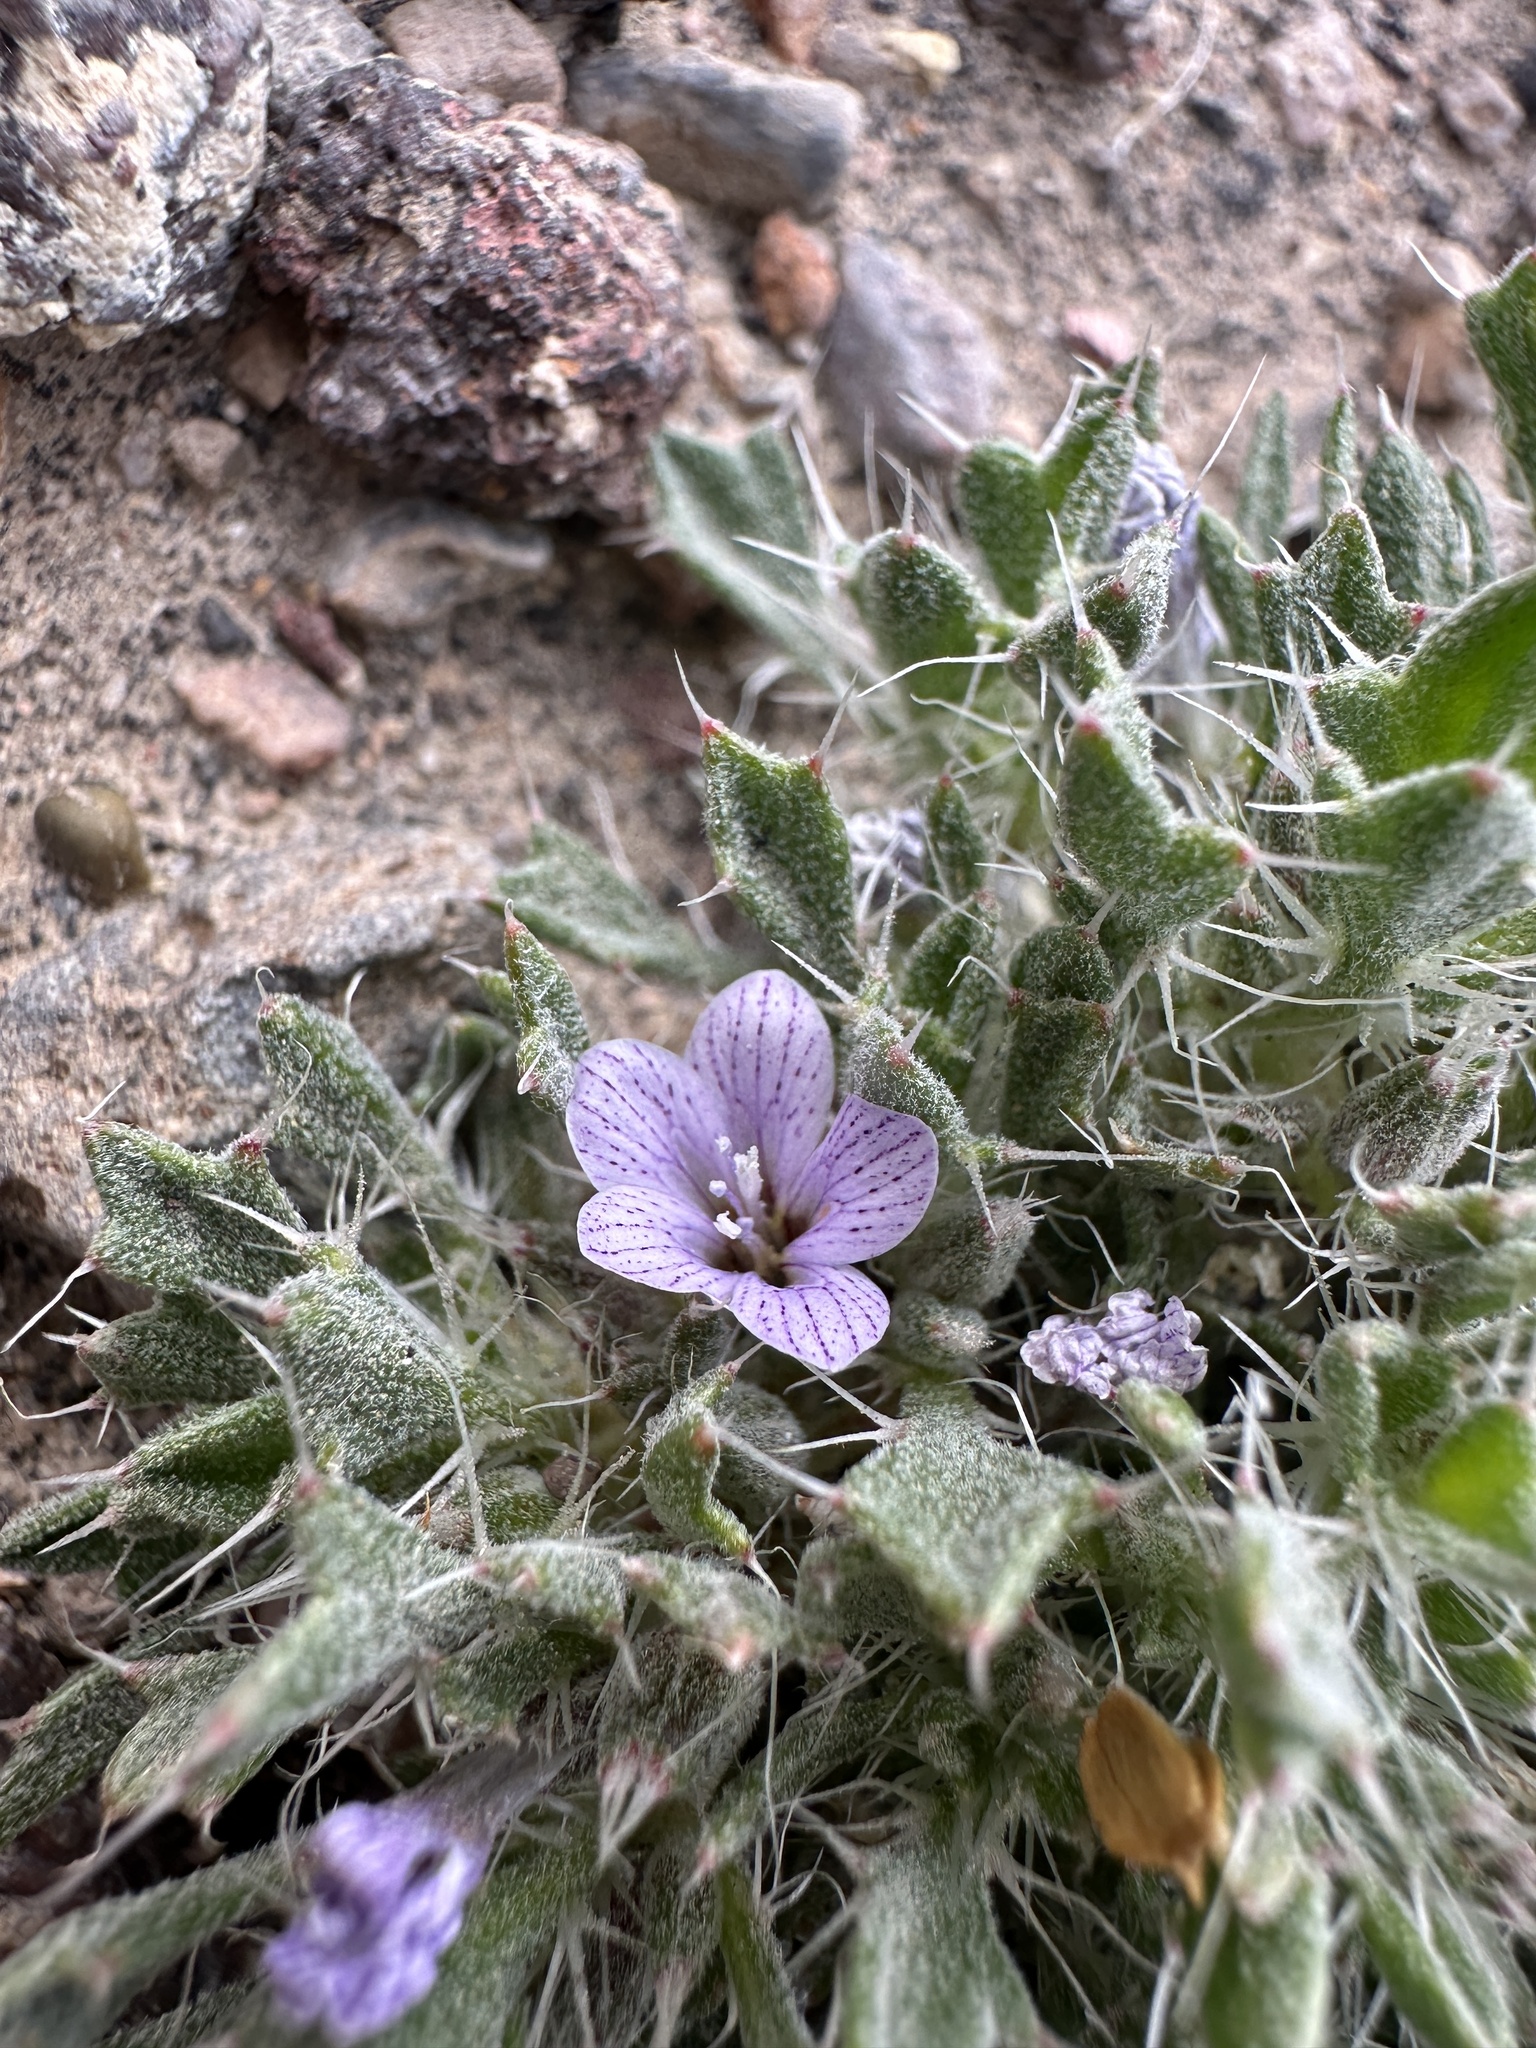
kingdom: Plantae
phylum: Tracheophyta
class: Magnoliopsida
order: Ericales
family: Polemoniaceae
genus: Langloisia
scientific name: Langloisia setosissima
